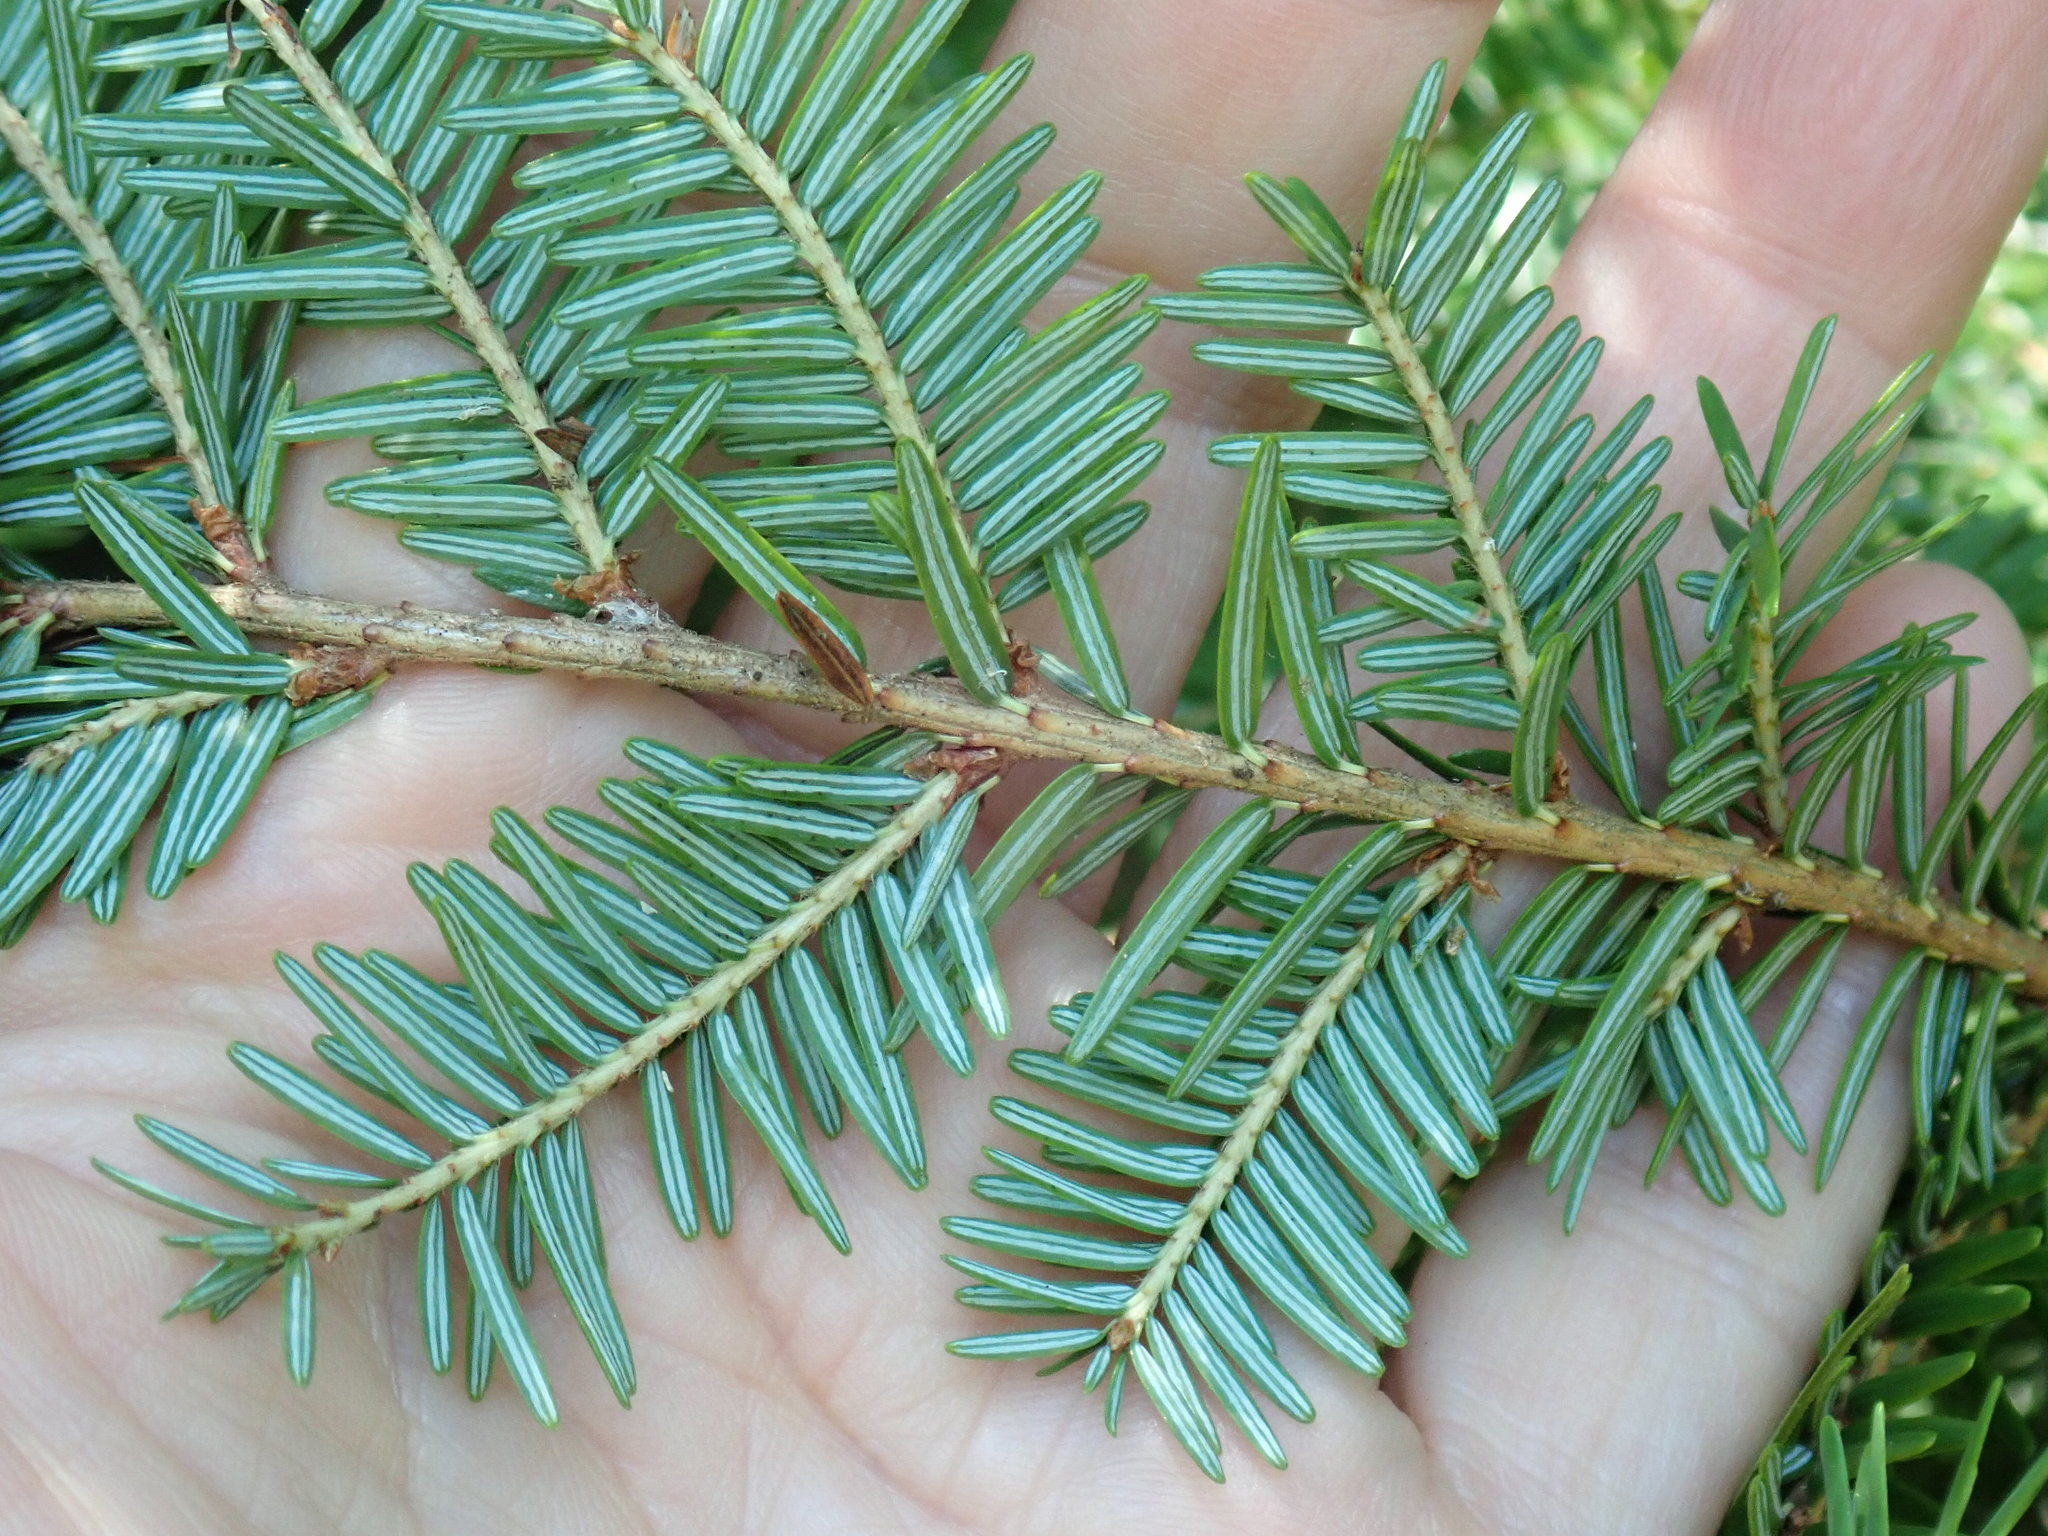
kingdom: Plantae
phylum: Tracheophyta
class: Pinopsida
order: Pinales
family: Pinaceae
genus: Tsuga
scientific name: Tsuga canadensis
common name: Eastern hemlock
